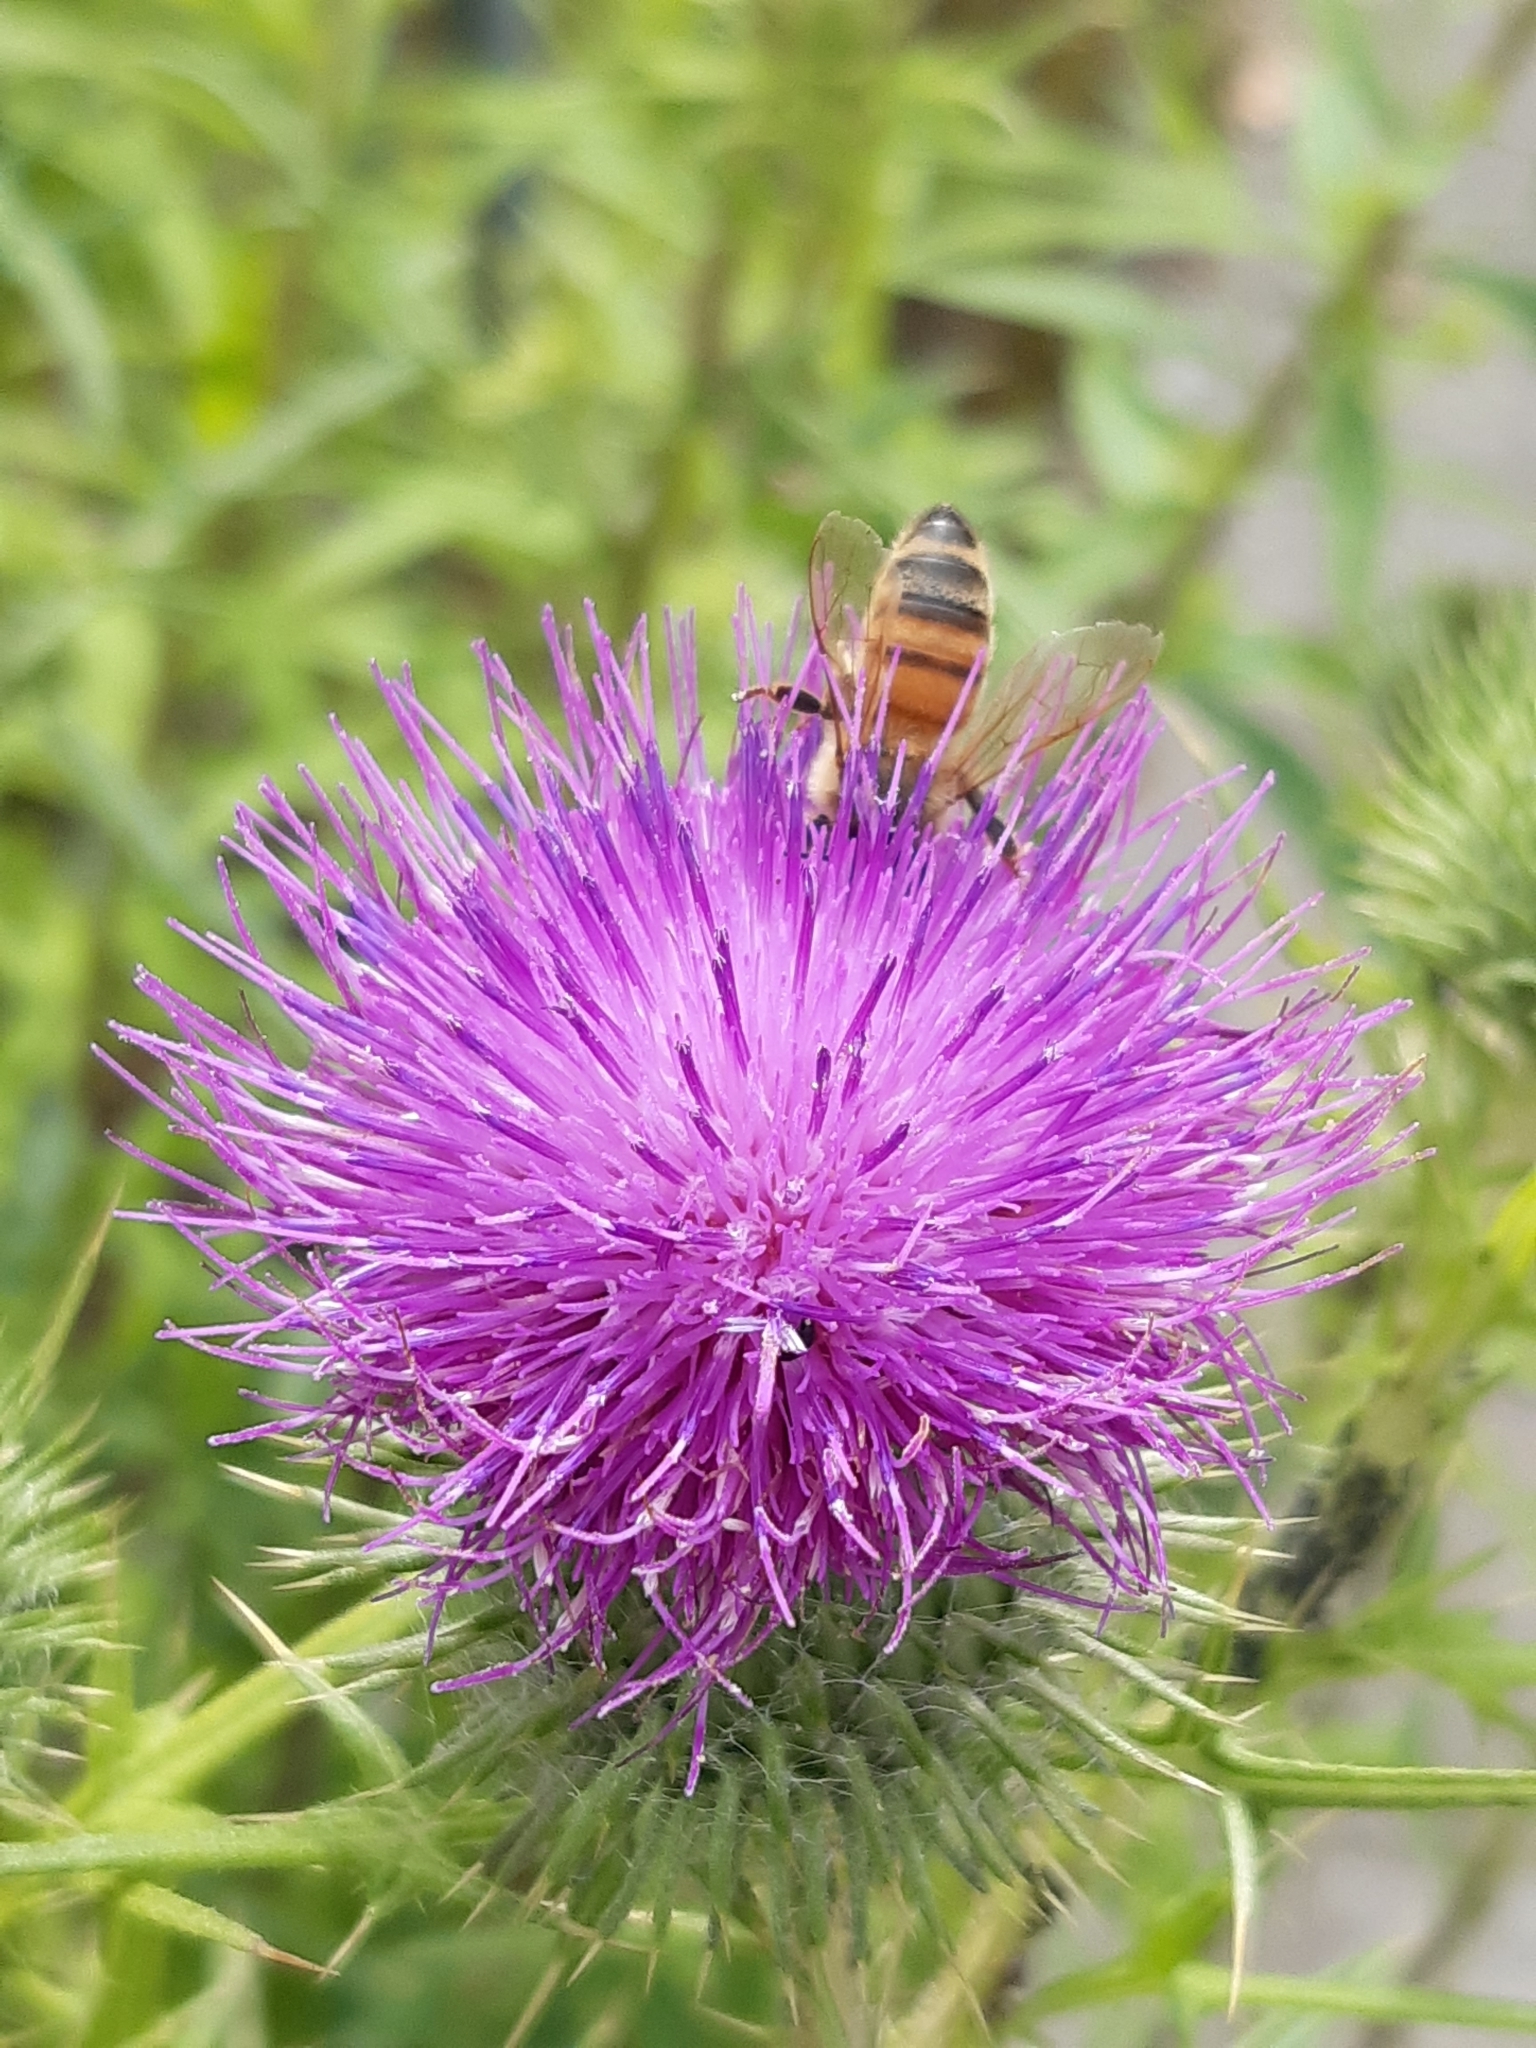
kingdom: Plantae
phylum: Tracheophyta
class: Magnoliopsida
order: Asterales
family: Asteraceae
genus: Cirsium
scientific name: Cirsium vulgare
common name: Bull thistle
